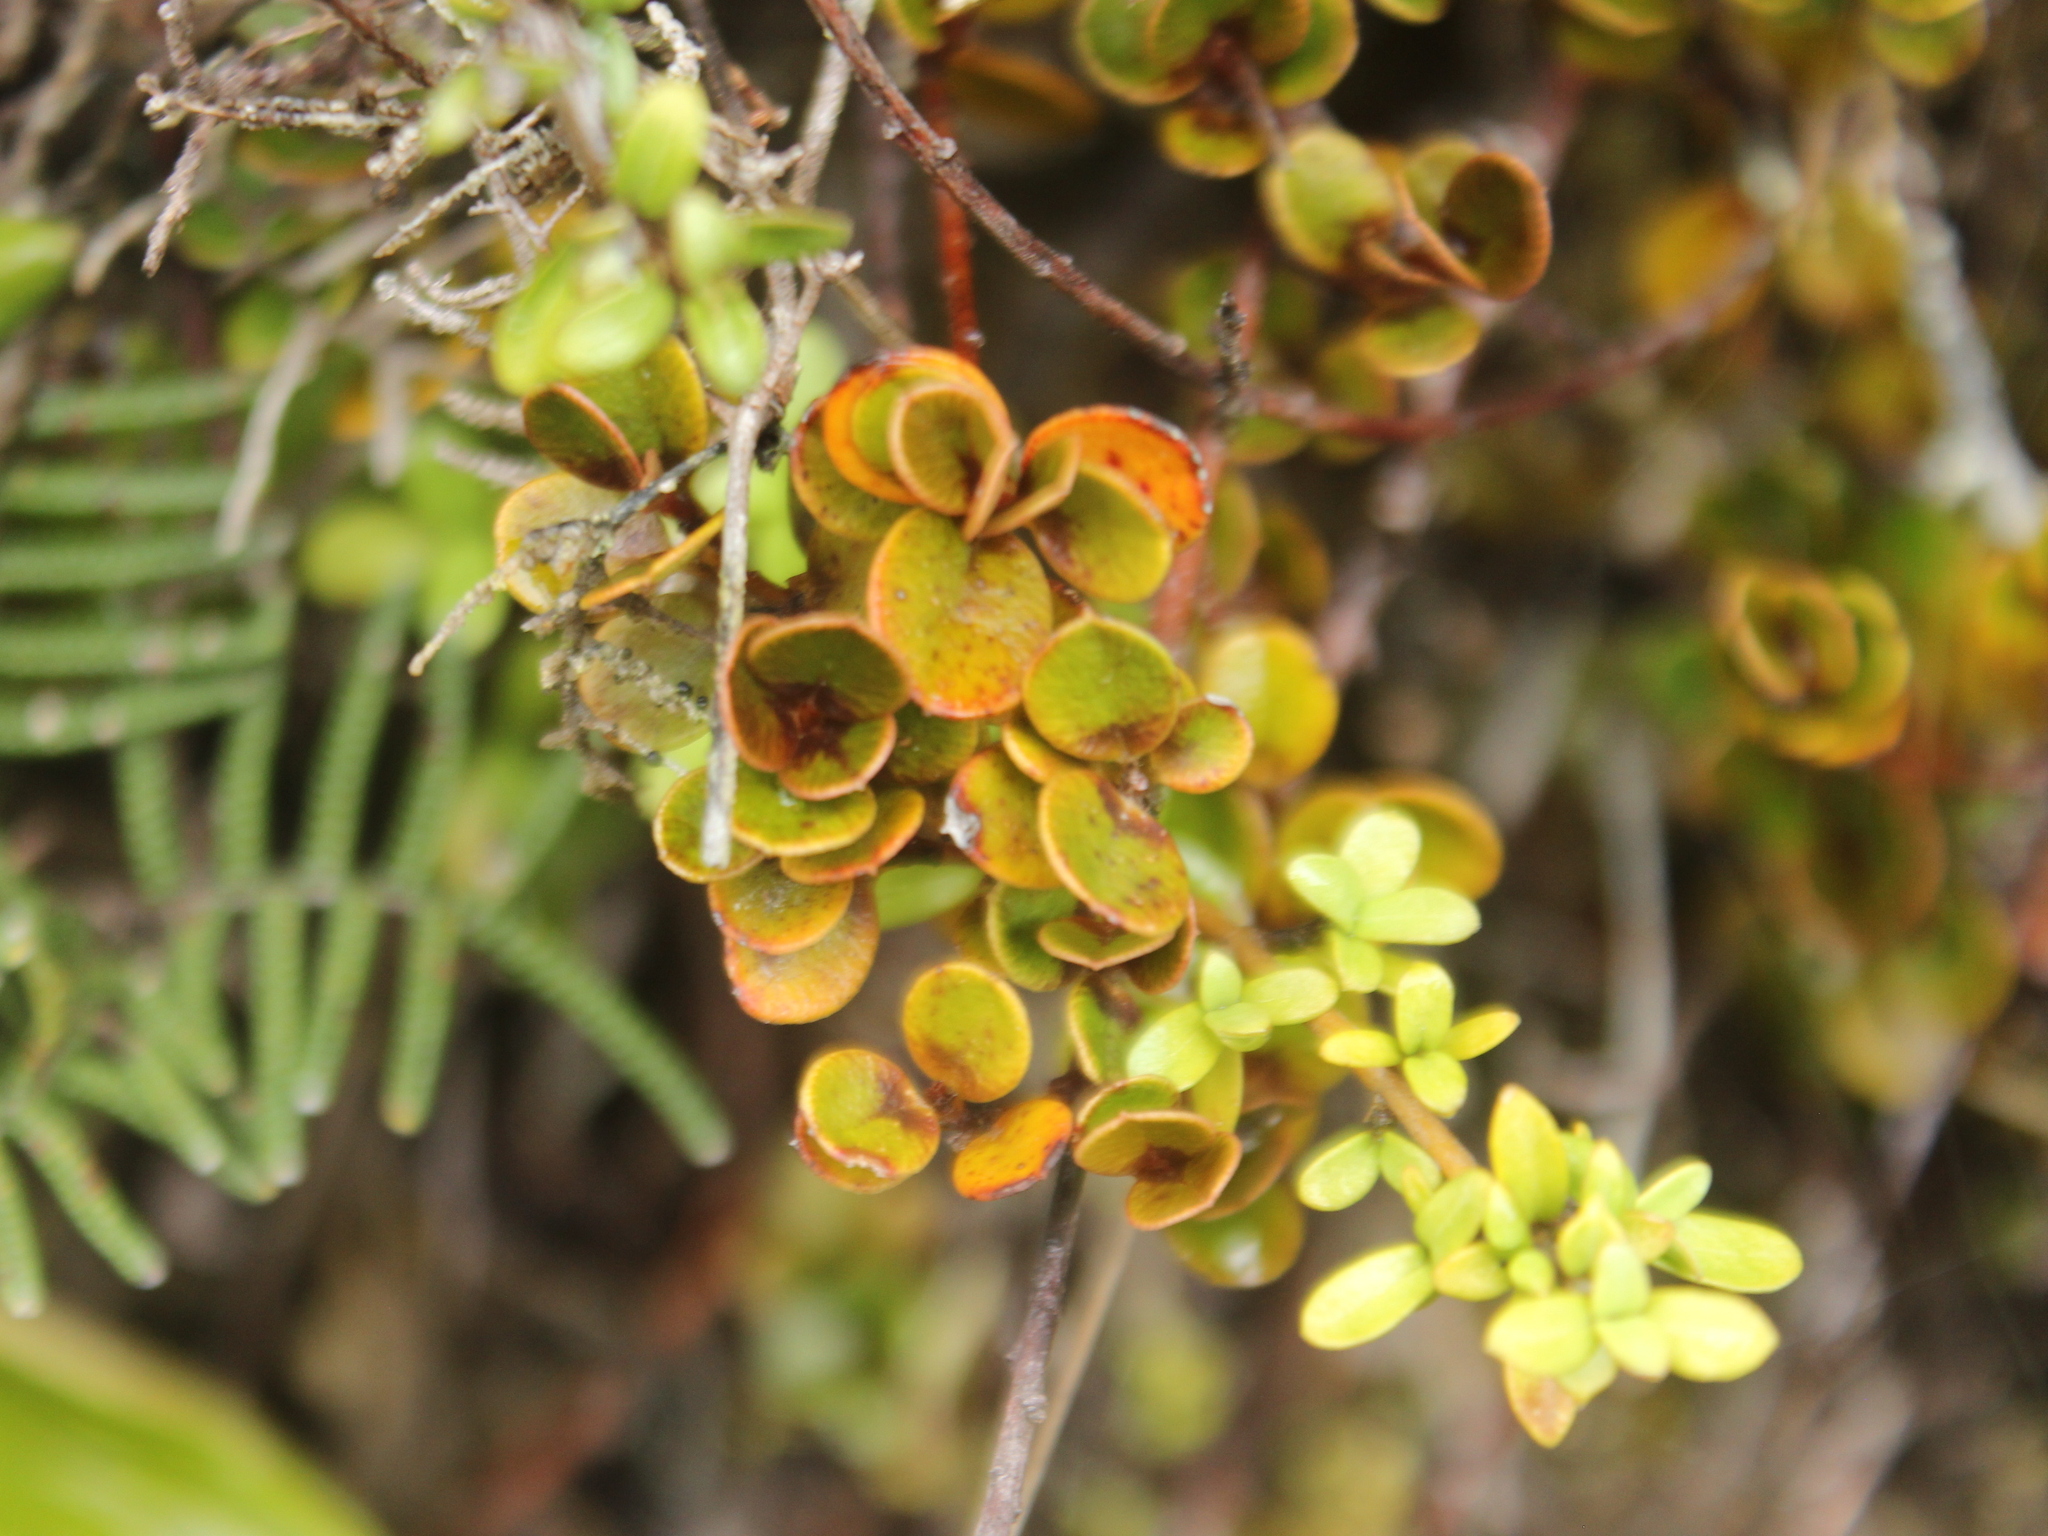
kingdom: Plantae
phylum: Tracheophyta
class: Magnoliopsida
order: Ericales
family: Primulaceae
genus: Myrsine
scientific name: Myrsine nummularia
